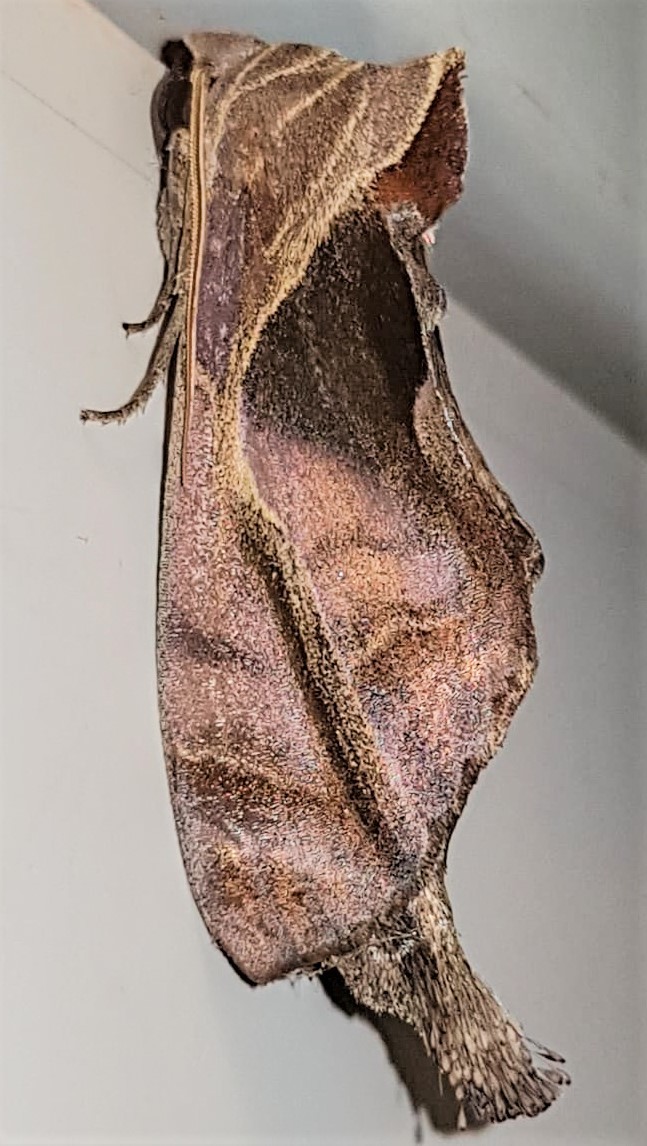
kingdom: Animalia
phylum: Arthropoda
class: Insecta
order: Lepidoptera
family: Notodontidae
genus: Crinodes
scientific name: Crinodes
